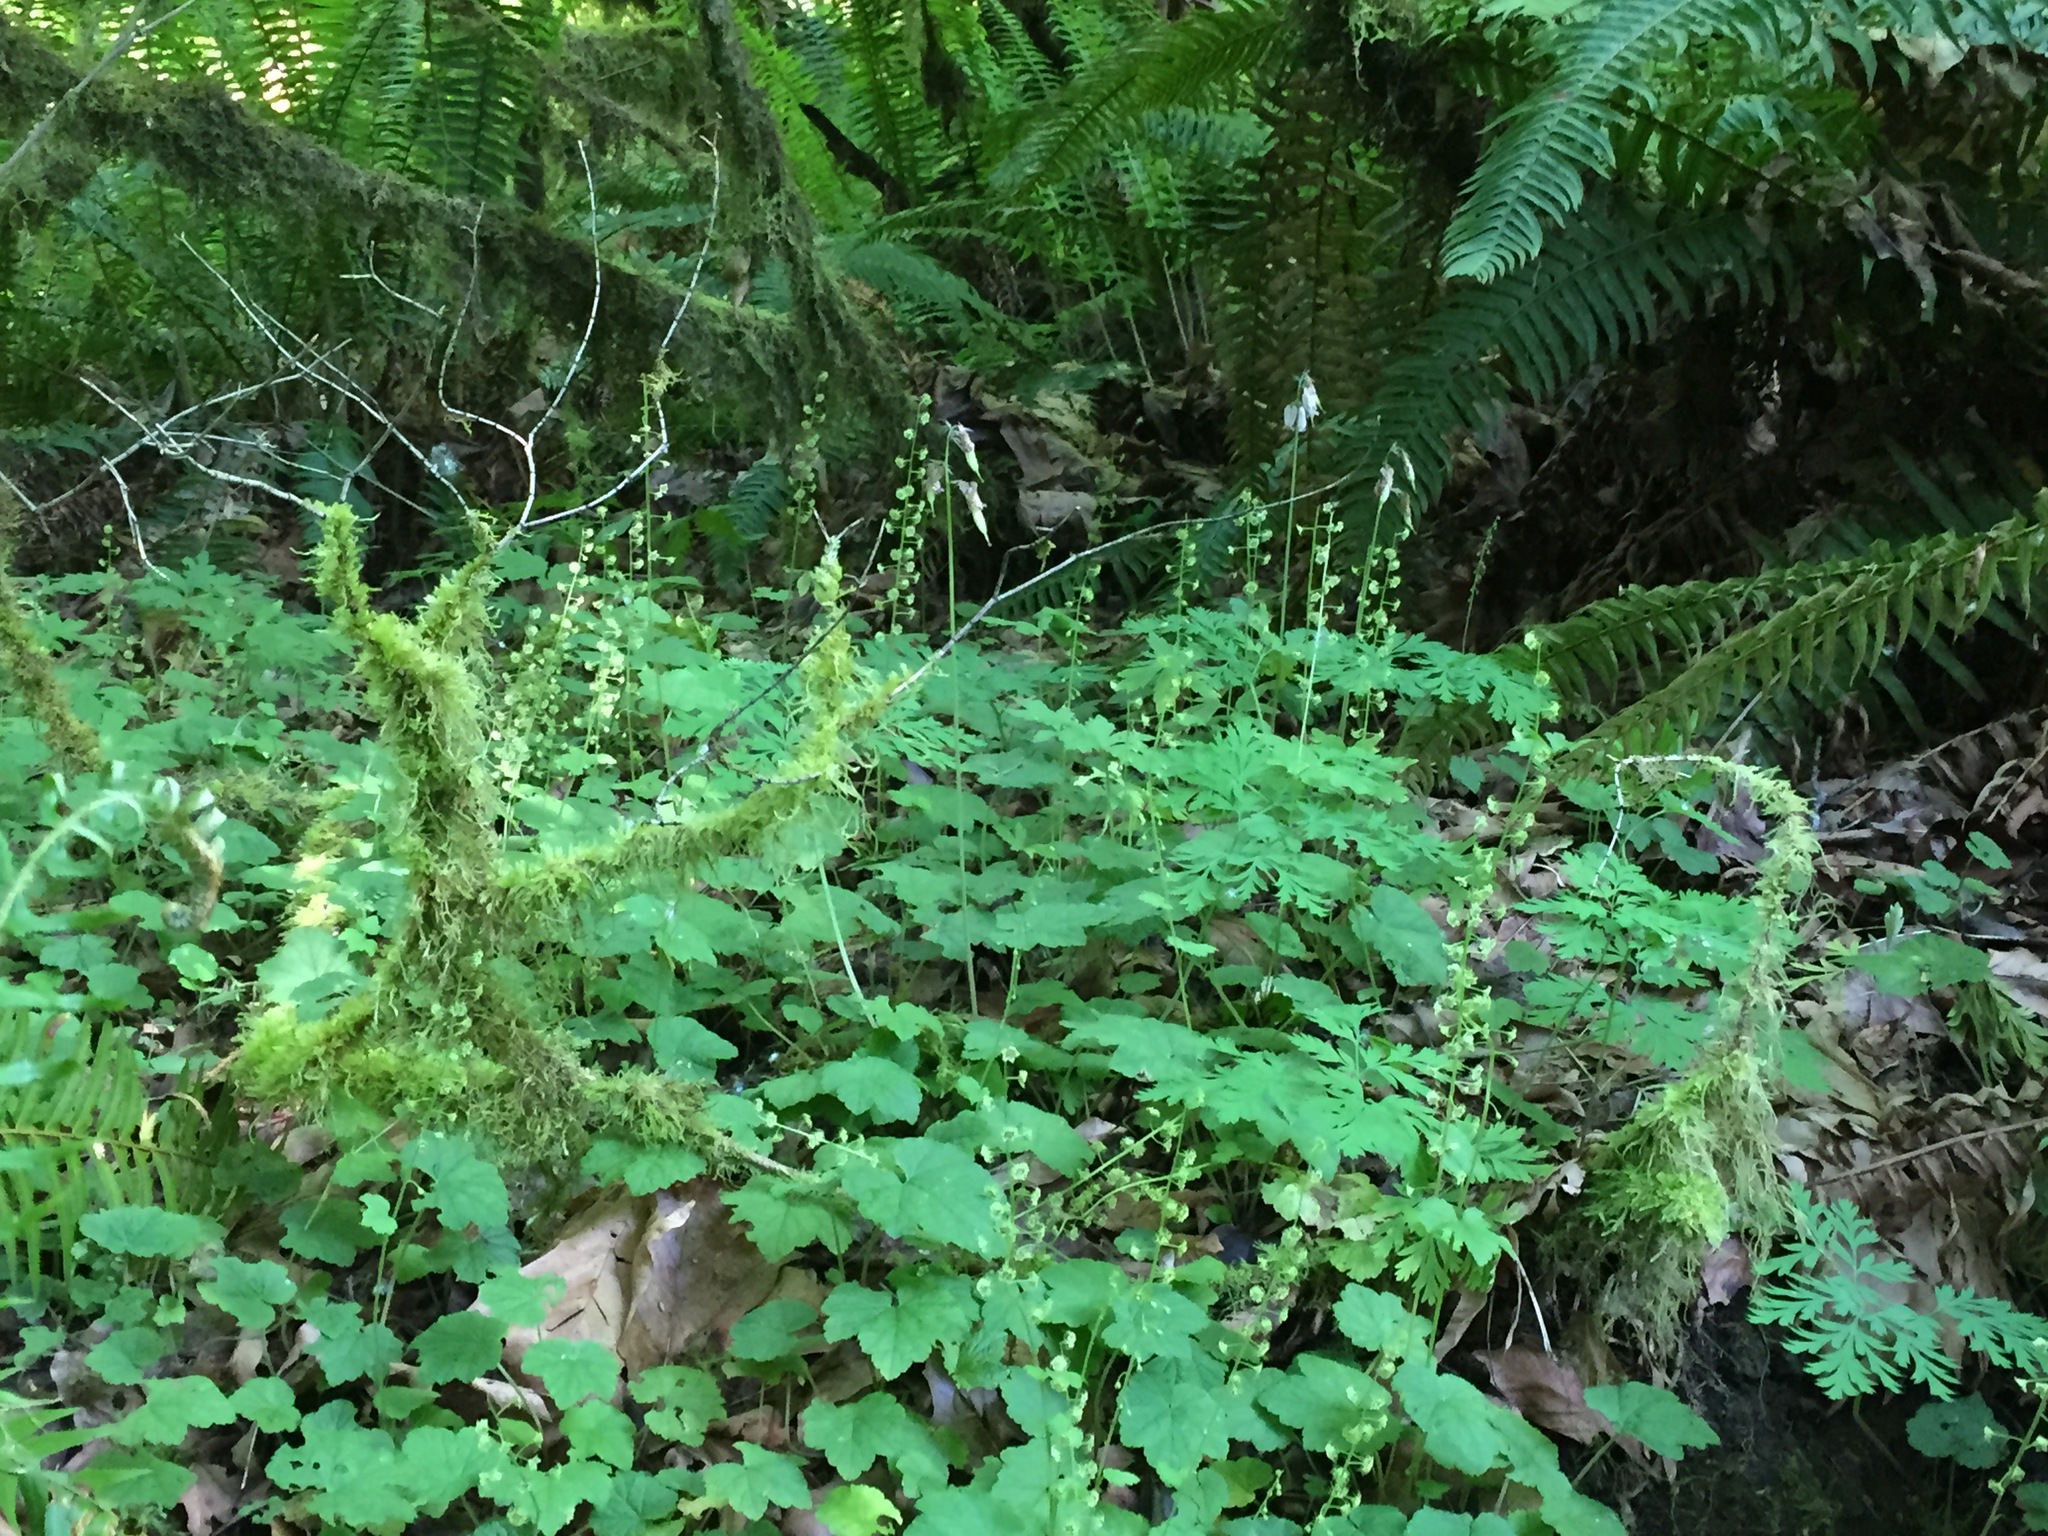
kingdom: Plantae
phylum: Tracheophyta
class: Magnoliopsida
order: Saxifragales
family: Saxifragaceae
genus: Mitellastra
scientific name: Mitellastra caulescens
